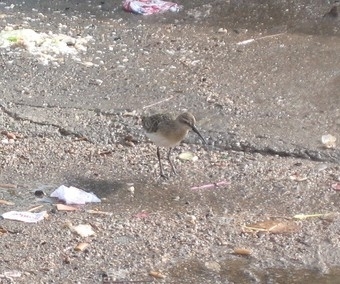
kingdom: Animalia
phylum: Chordata
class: Aves
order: Charadriiformes
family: Scolopacidae
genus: Calidris
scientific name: Calidris ferruginea
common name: Curlew sandpiper
